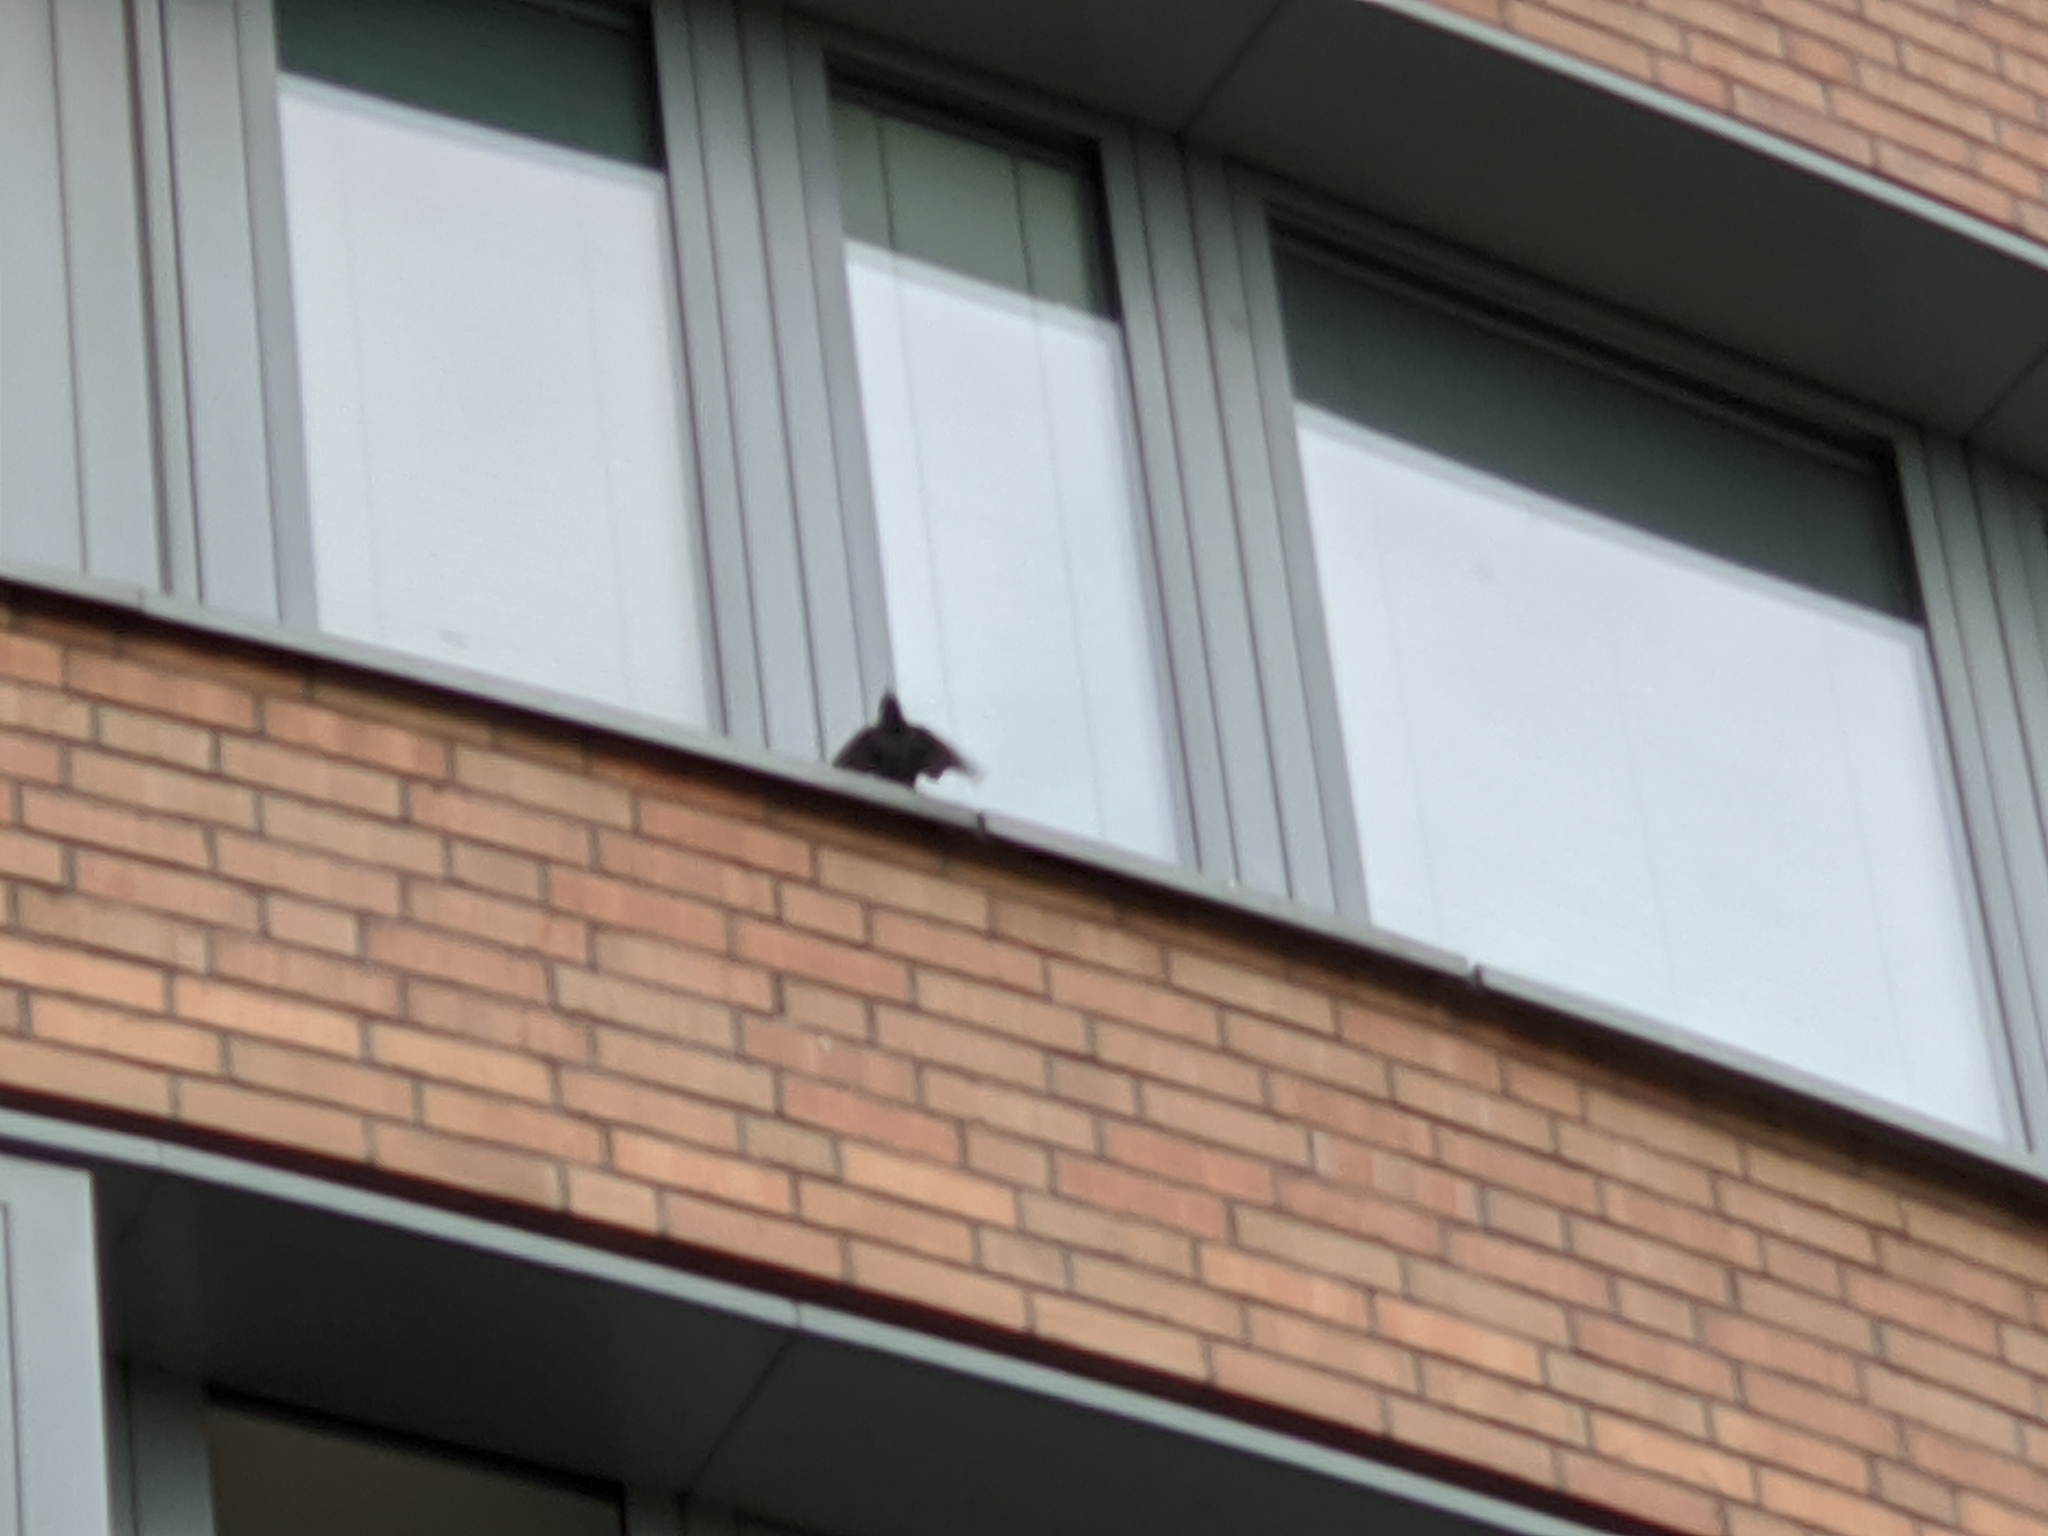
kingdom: Animalia
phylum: Chordata
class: Aves
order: Passeriformes
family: Sturnidae
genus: Sturnus
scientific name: Sturnus vulgaris
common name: Common starling
